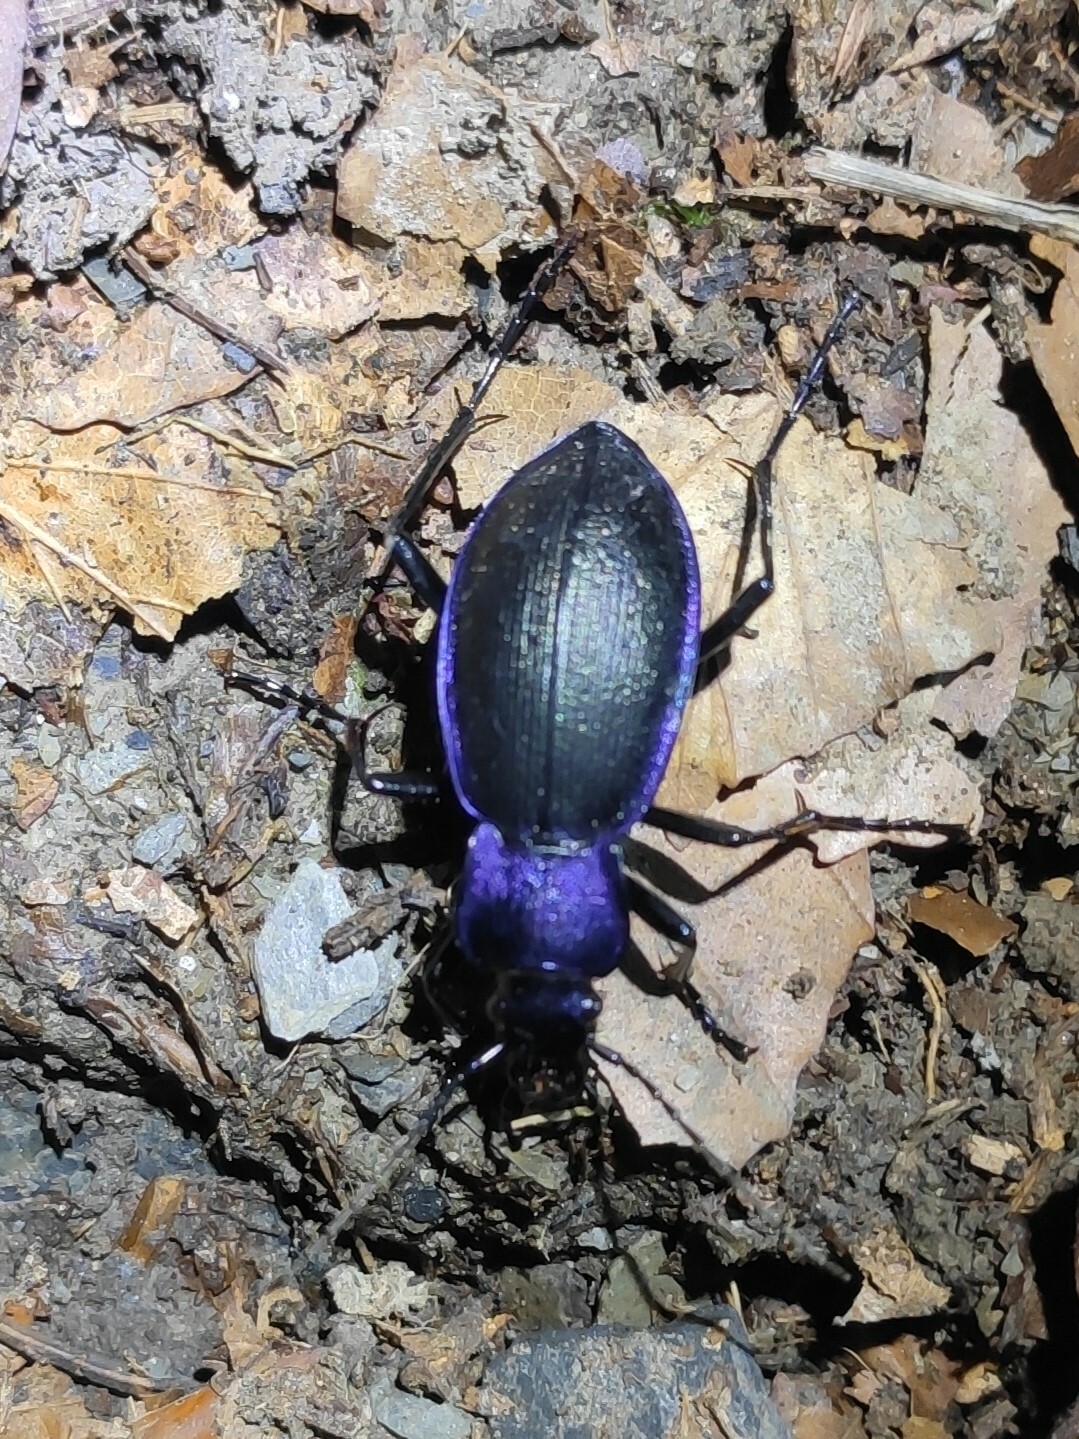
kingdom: Animalia
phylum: Arthropoda
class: Insecta
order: Coleoptera
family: Carabidae
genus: Carabus
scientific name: Carabus problematicus
